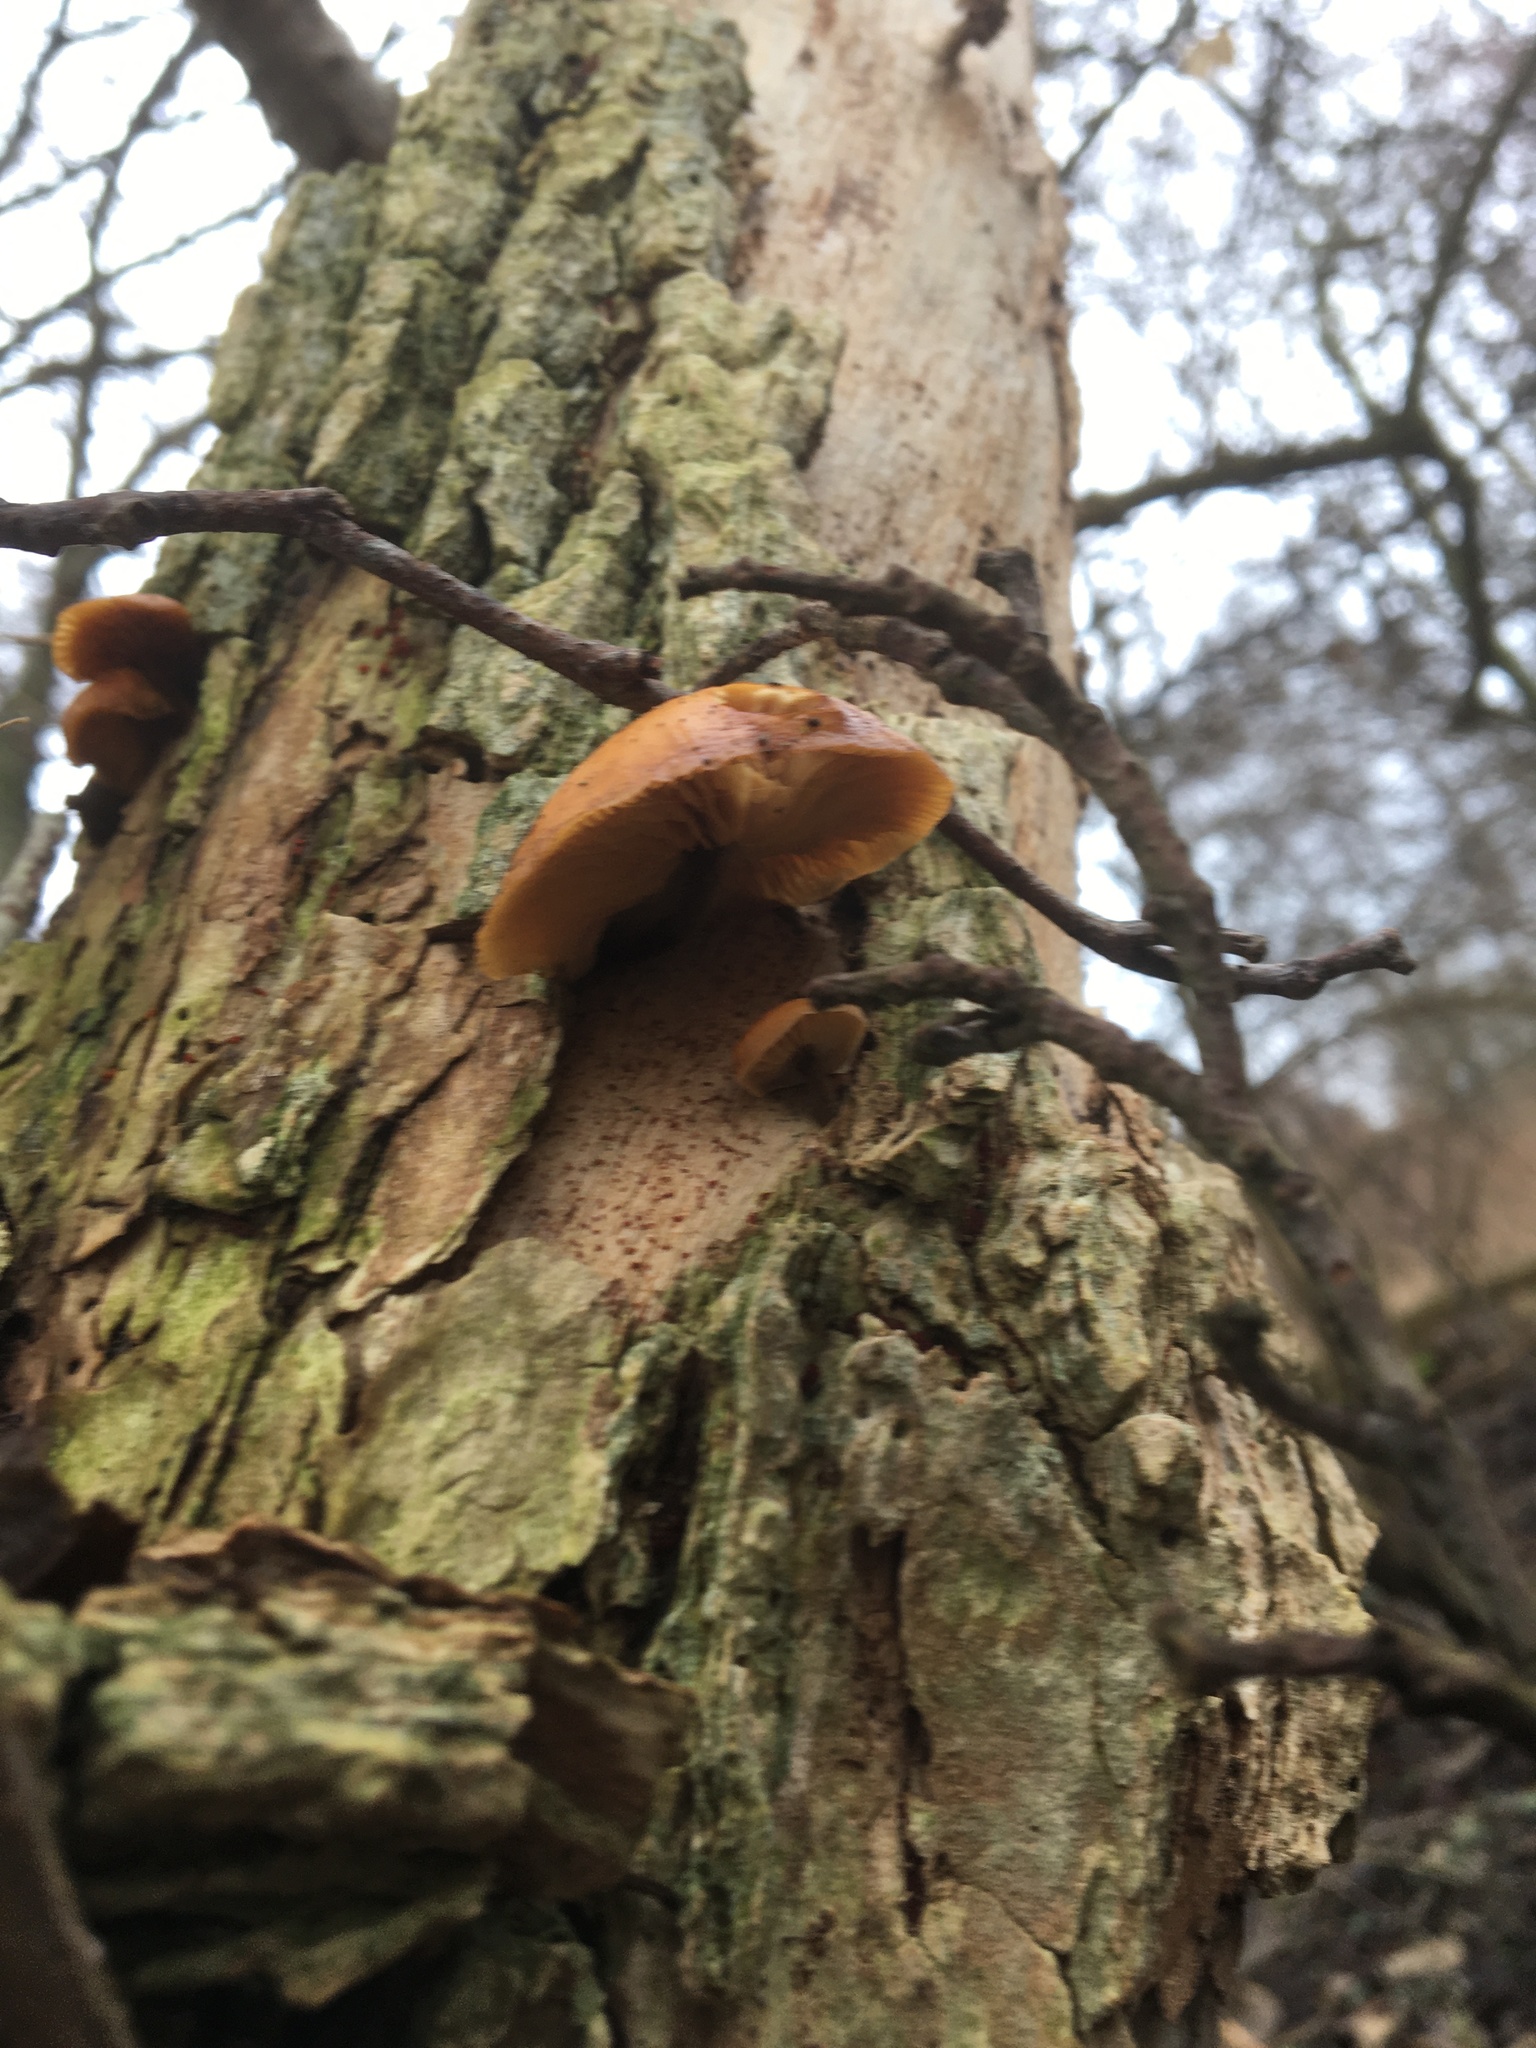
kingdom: Fungi
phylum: Basidiomycota
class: Agaricomycetes
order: Agaricales
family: Physalacriaceae
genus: Flammulina
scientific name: Flammulina
